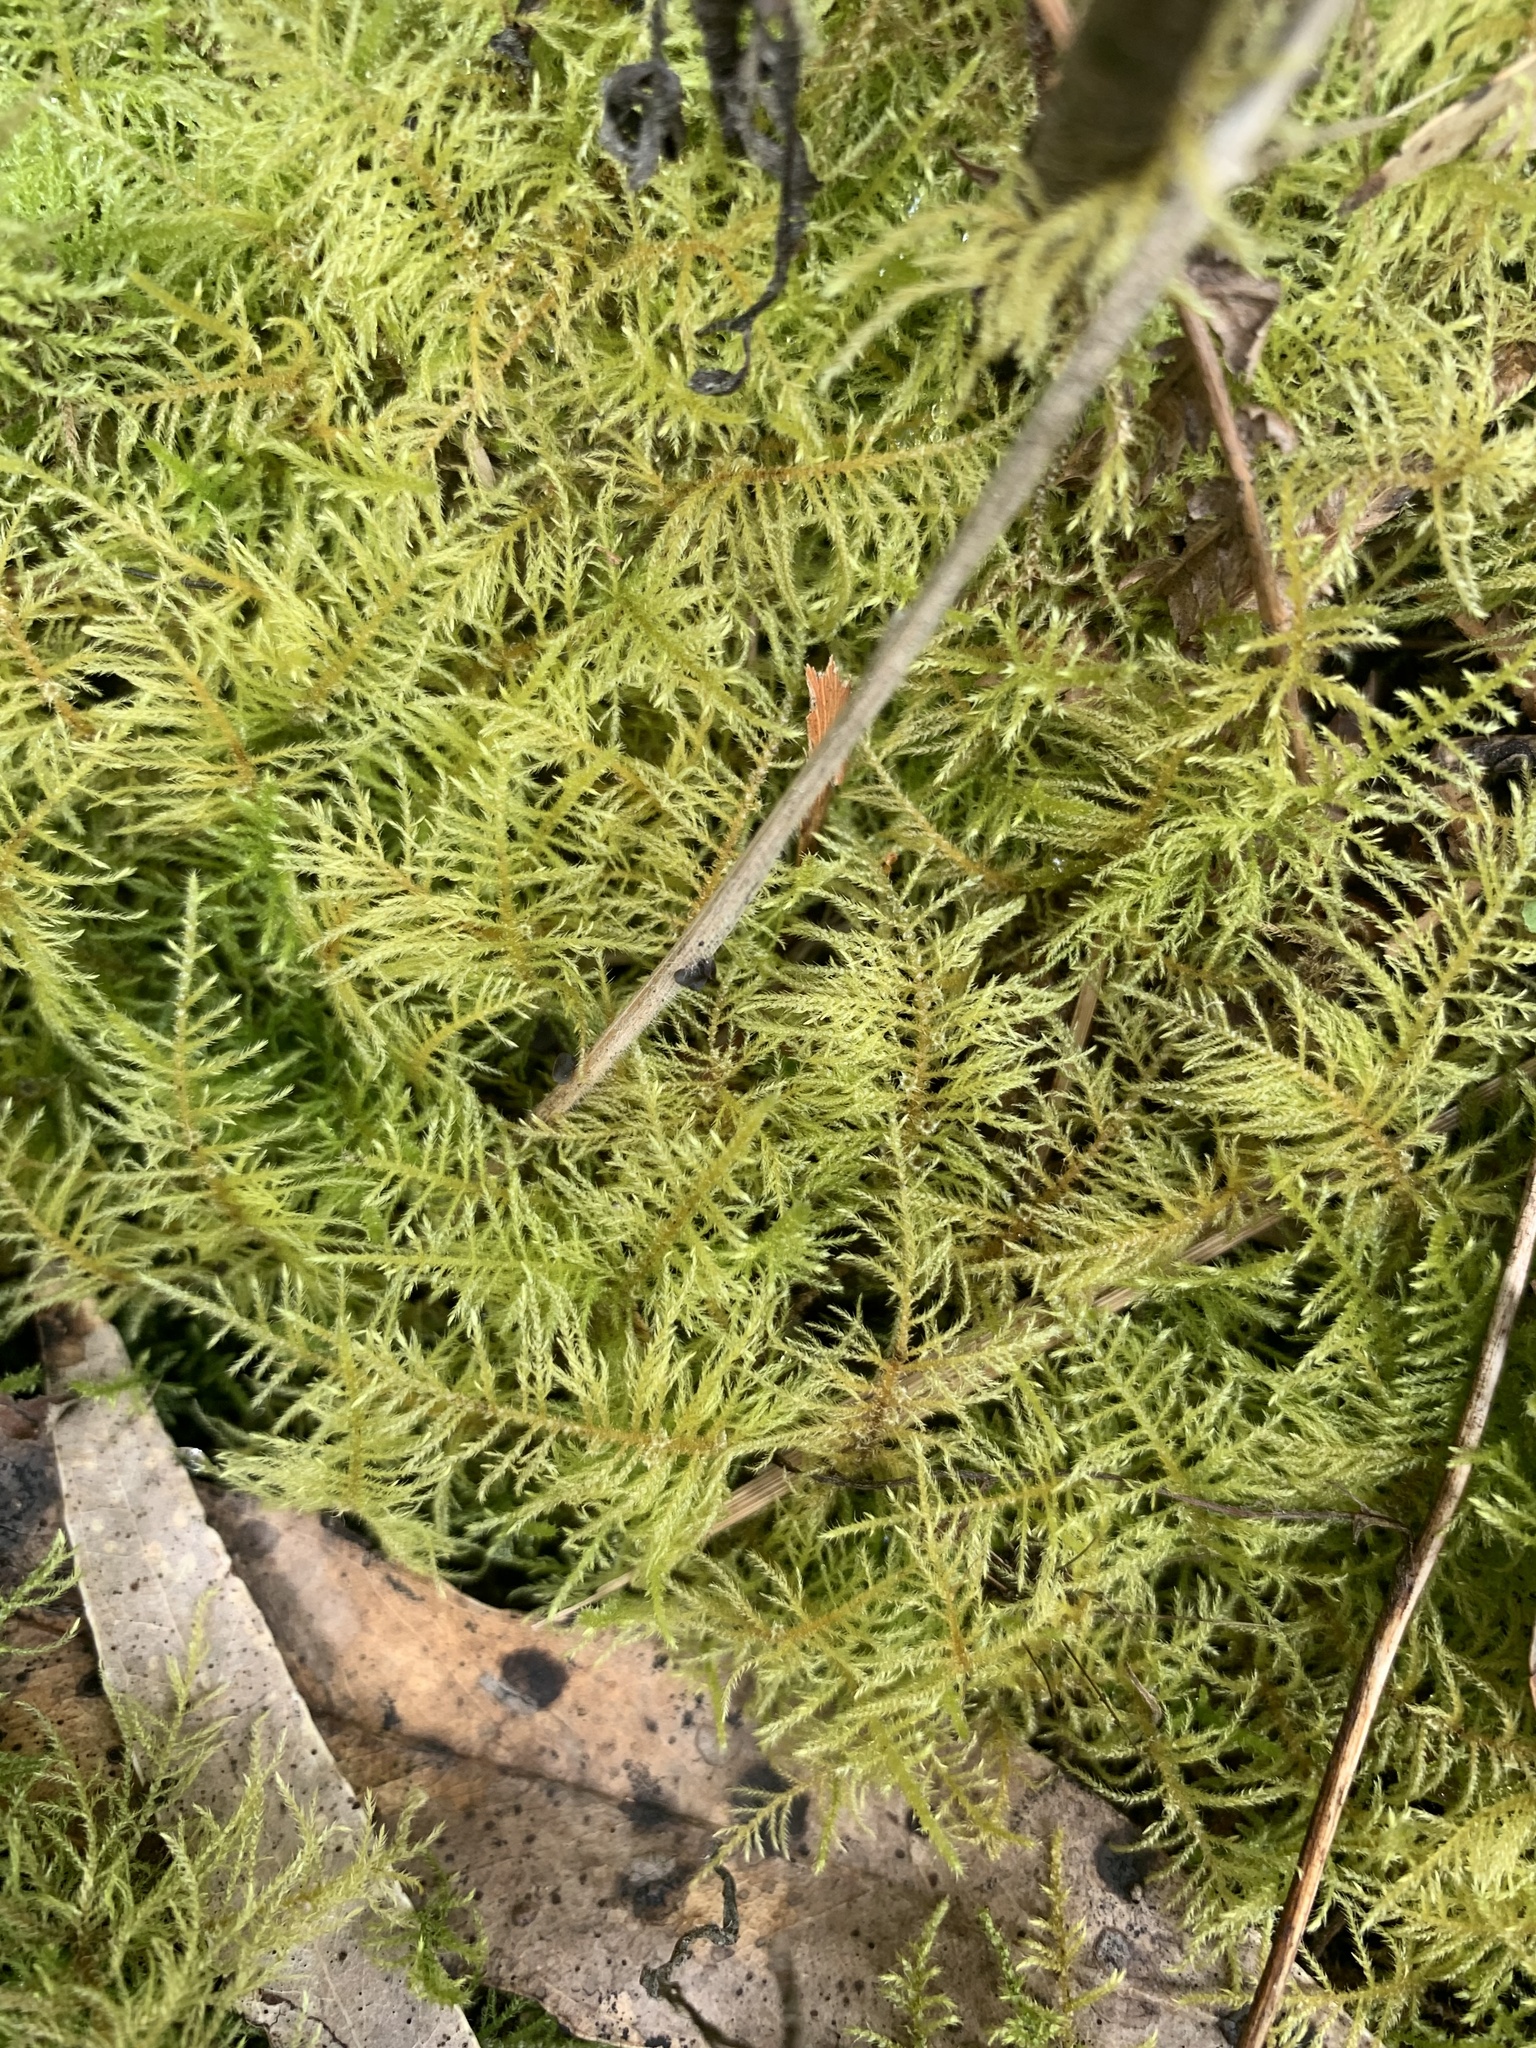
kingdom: Plantae
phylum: Bryophyta
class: Bryopsida
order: Hypnales
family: Brachytheciaceae
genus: Kindbergia
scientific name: Kindbergia praelonga
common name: Slender beaked moss
